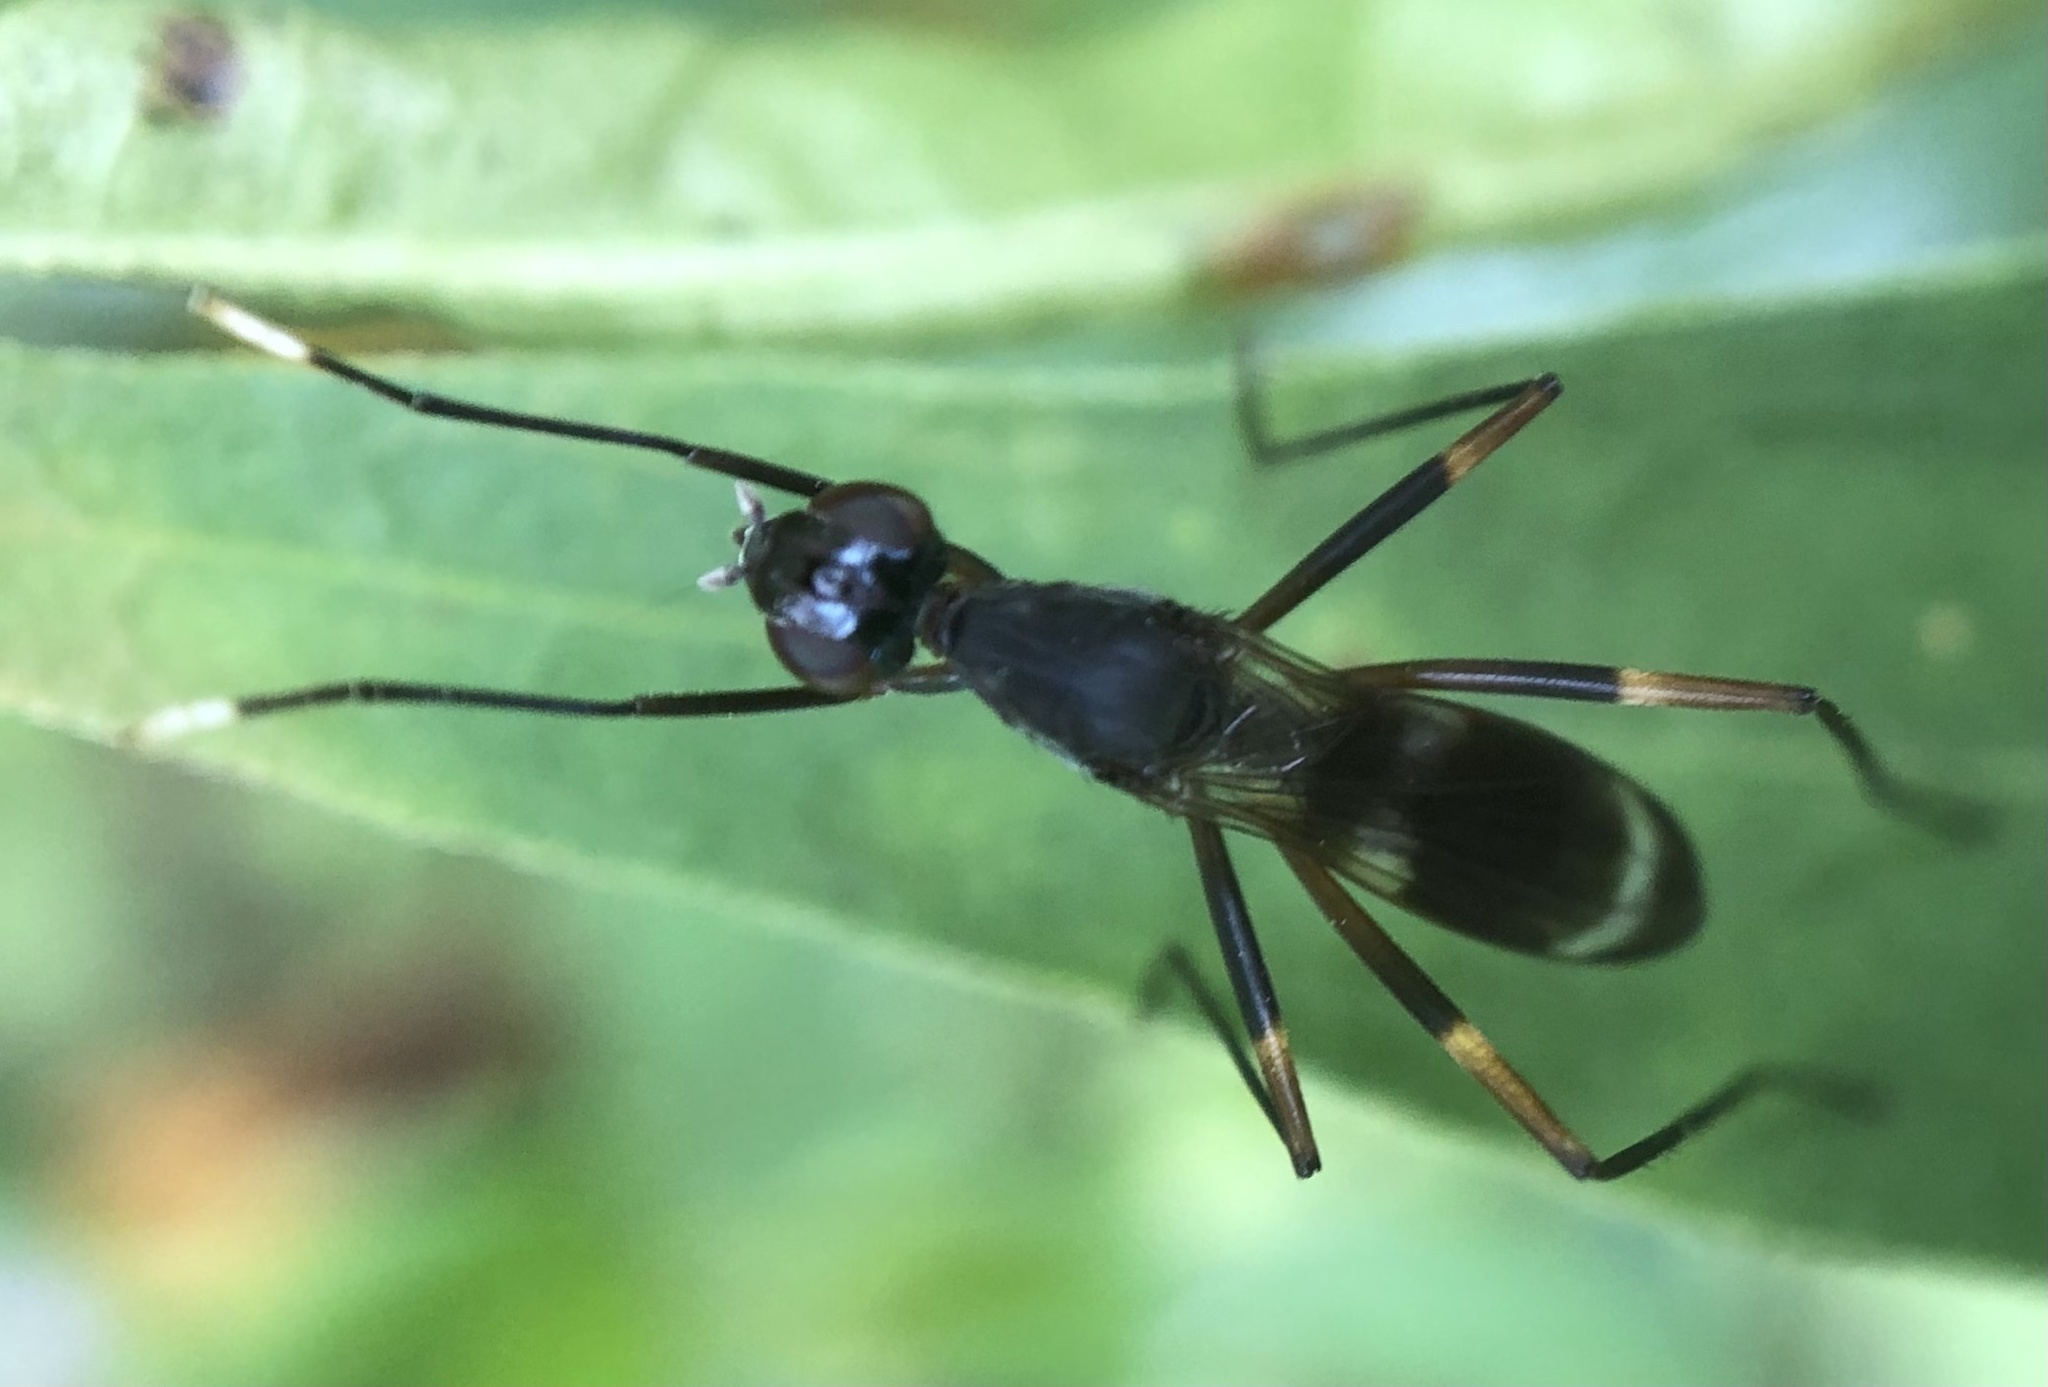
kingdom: Animalia
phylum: Arthropoda
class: Insecta
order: Diptera
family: Micropezidae
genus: Taeniaptera
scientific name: Taeniaptera trivittata
